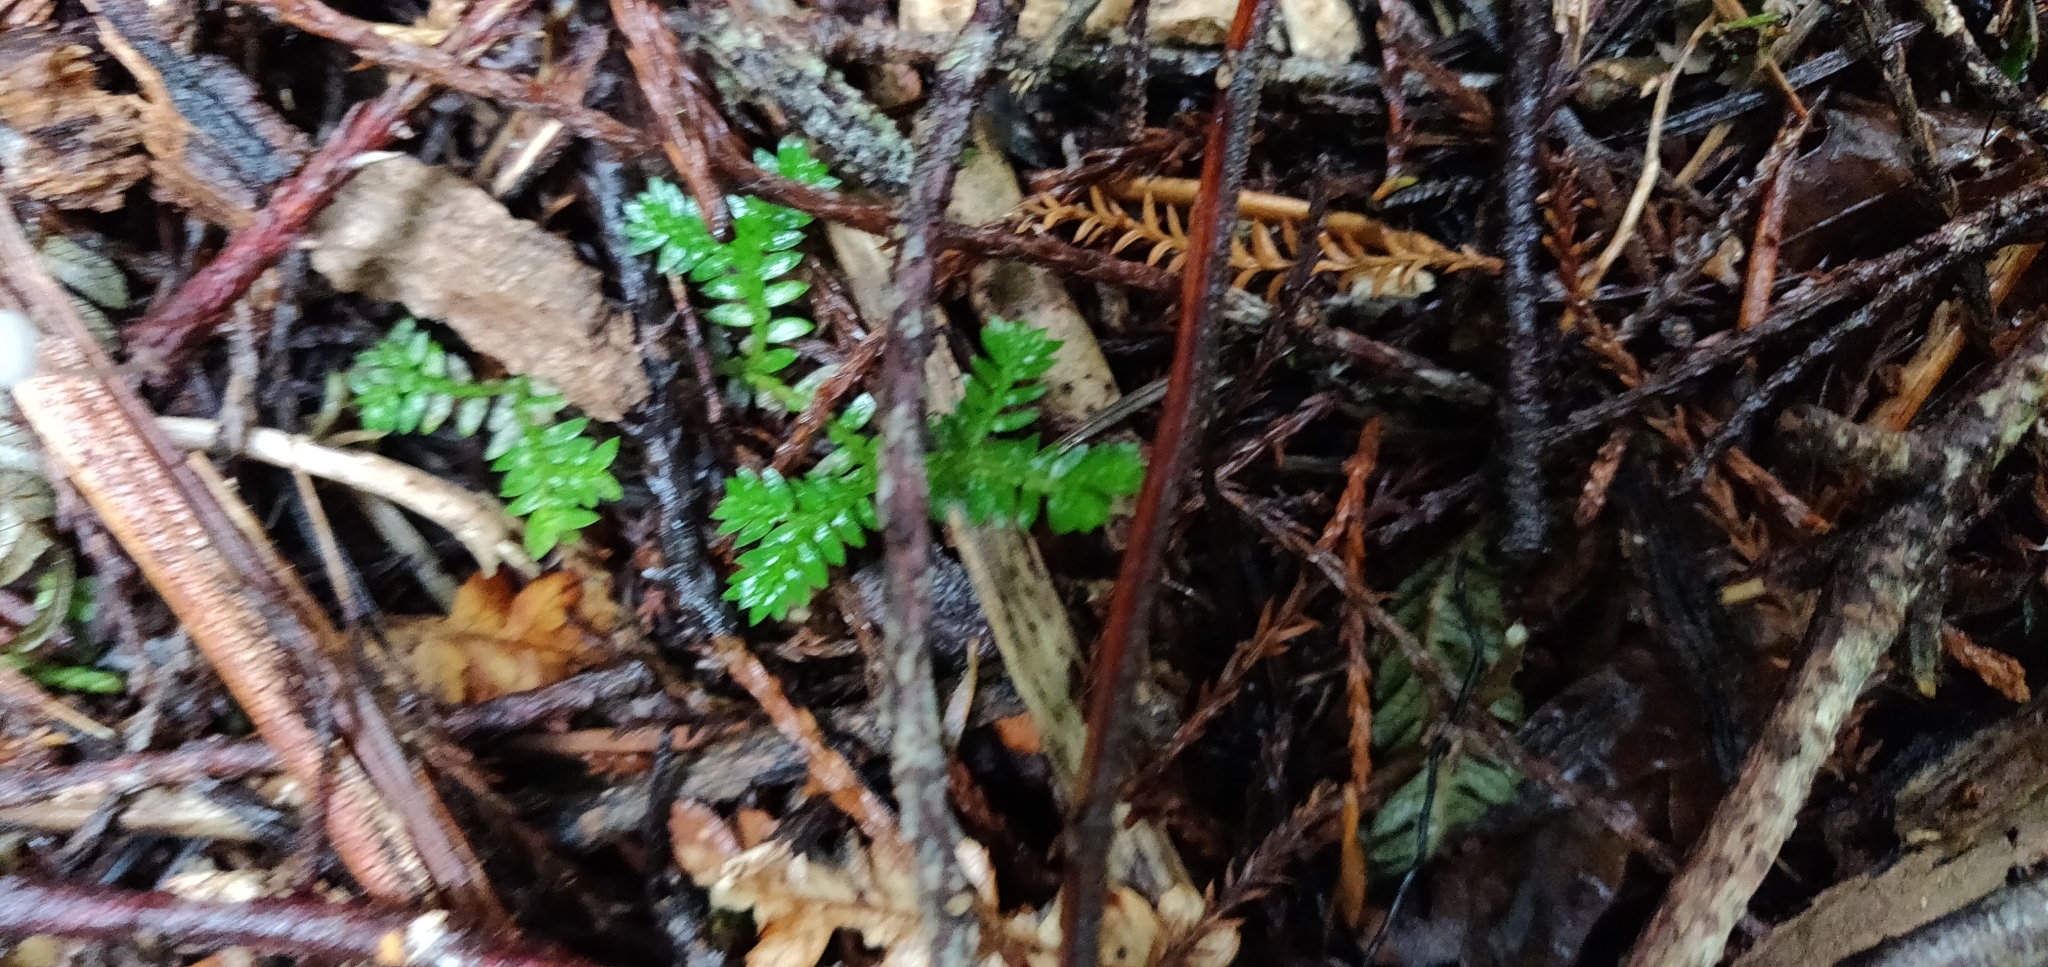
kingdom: Plantae
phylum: Tracheophyta
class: Lycopodiopsida
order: Selaginellales
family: Selaginellaceae
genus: Selaginella
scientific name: Selaginella kraussiana
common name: Krauss' spikemoss
